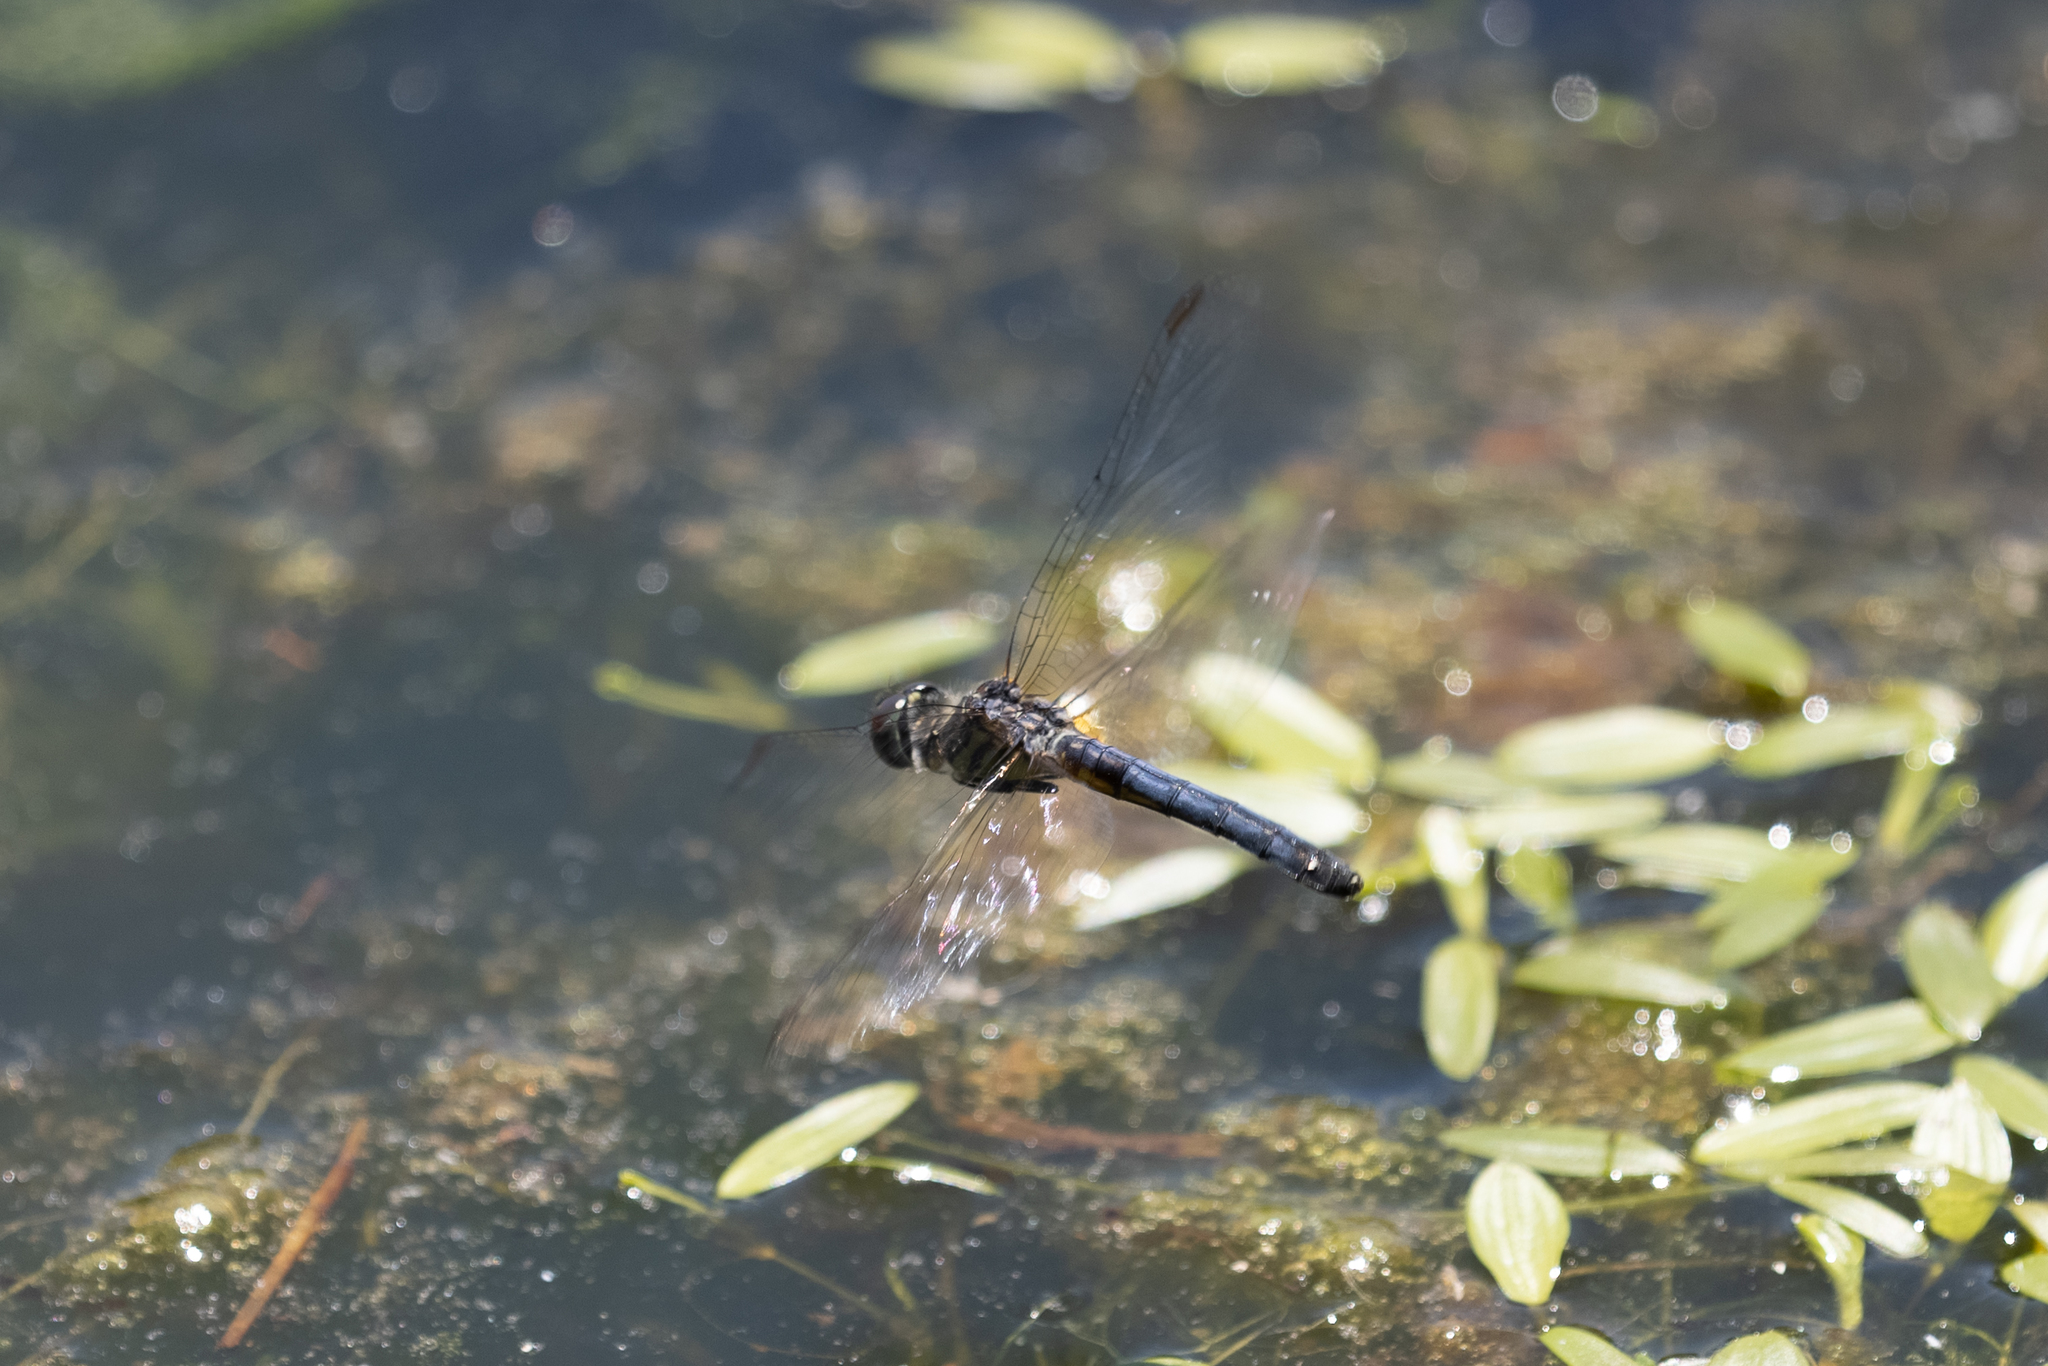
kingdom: Animalia
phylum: Arthropoda
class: Insecta
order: Odonata
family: Libellulidae
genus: Pachydiplax
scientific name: Pachydiplax longipennis
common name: Blue dasher
